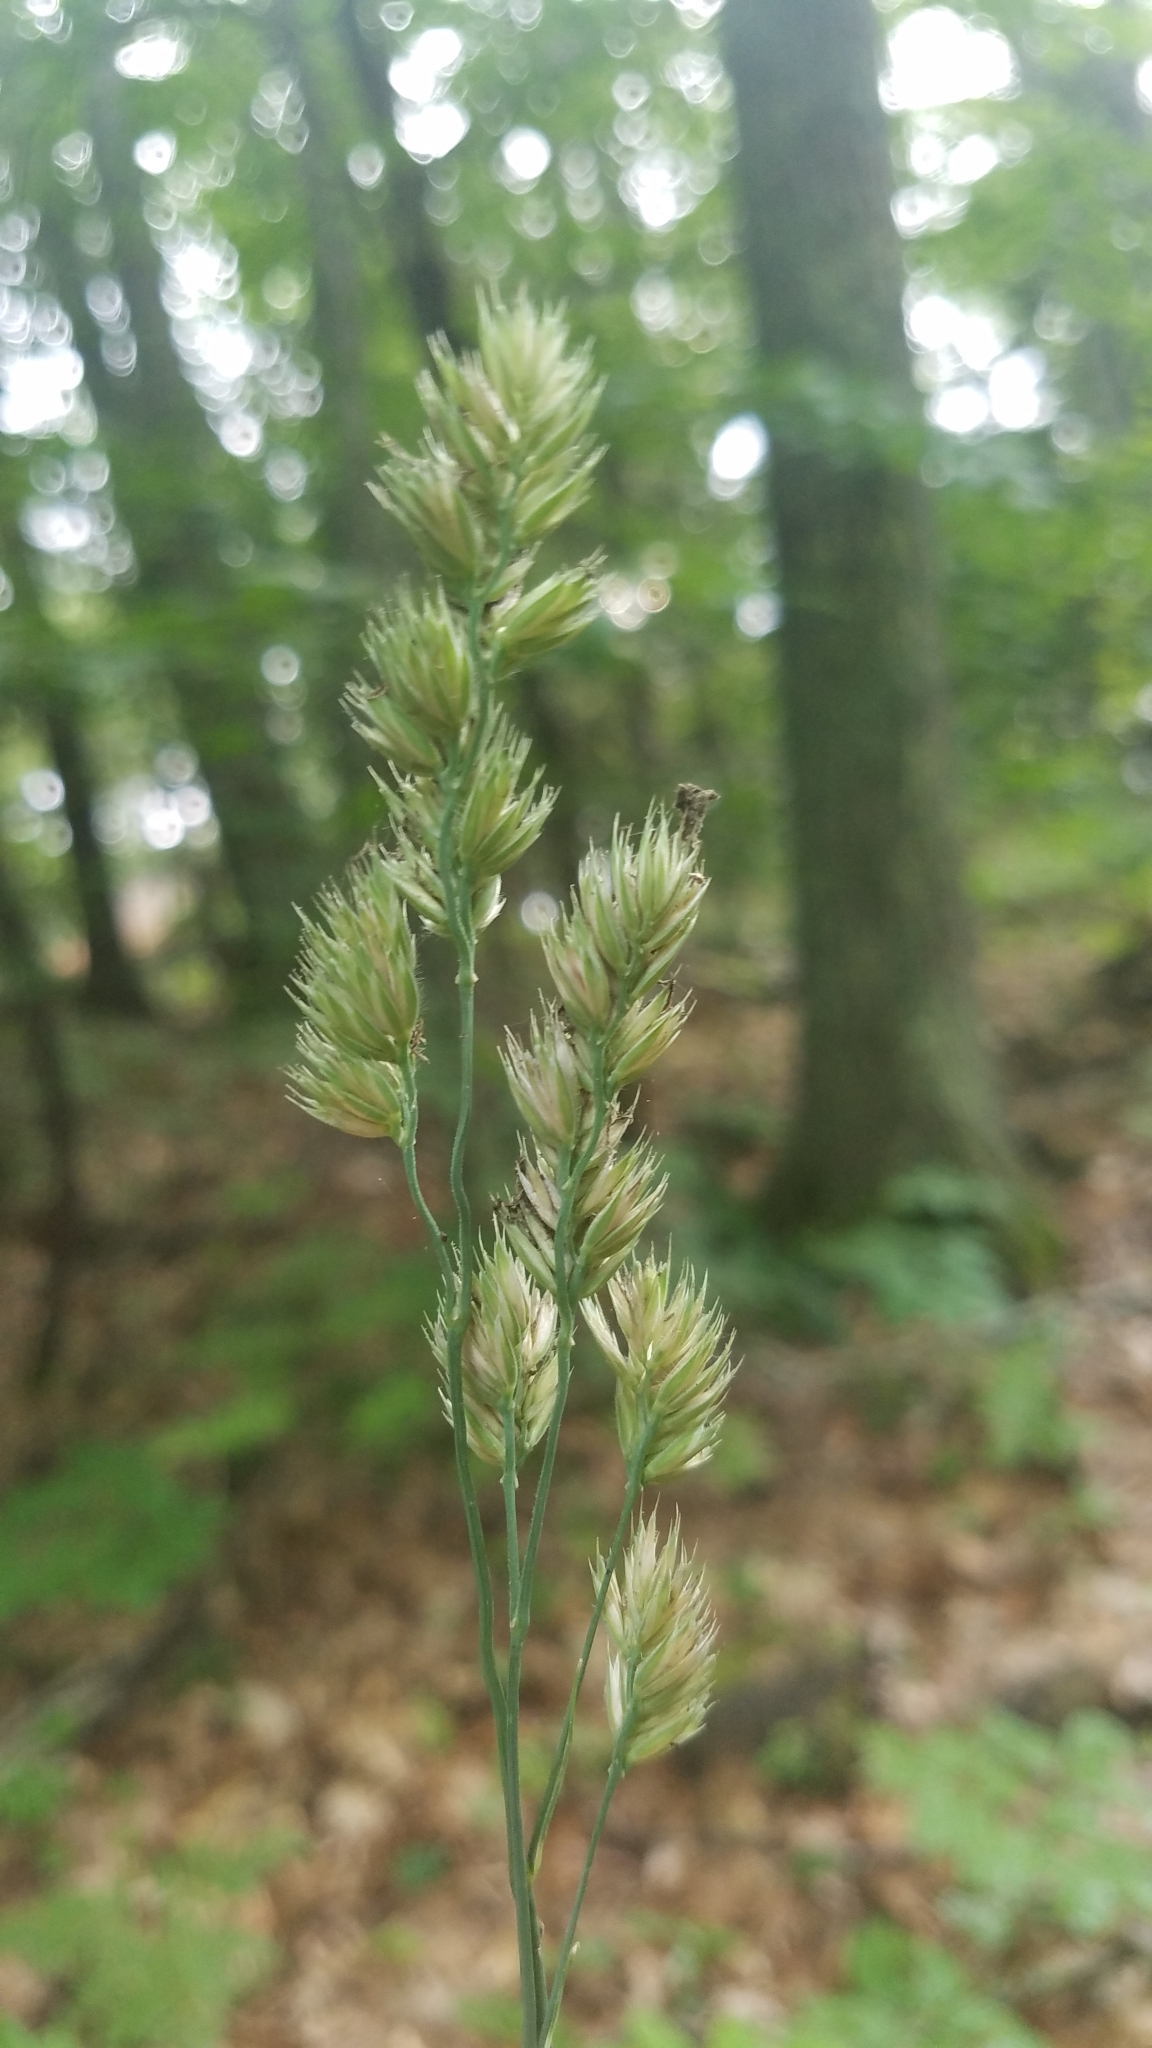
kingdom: Plantae
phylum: Tracheophyta
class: Liliopsida
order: Poales
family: Poaceae
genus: Dactylis
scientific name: Dactylis glomerata
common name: Orchardgrass
